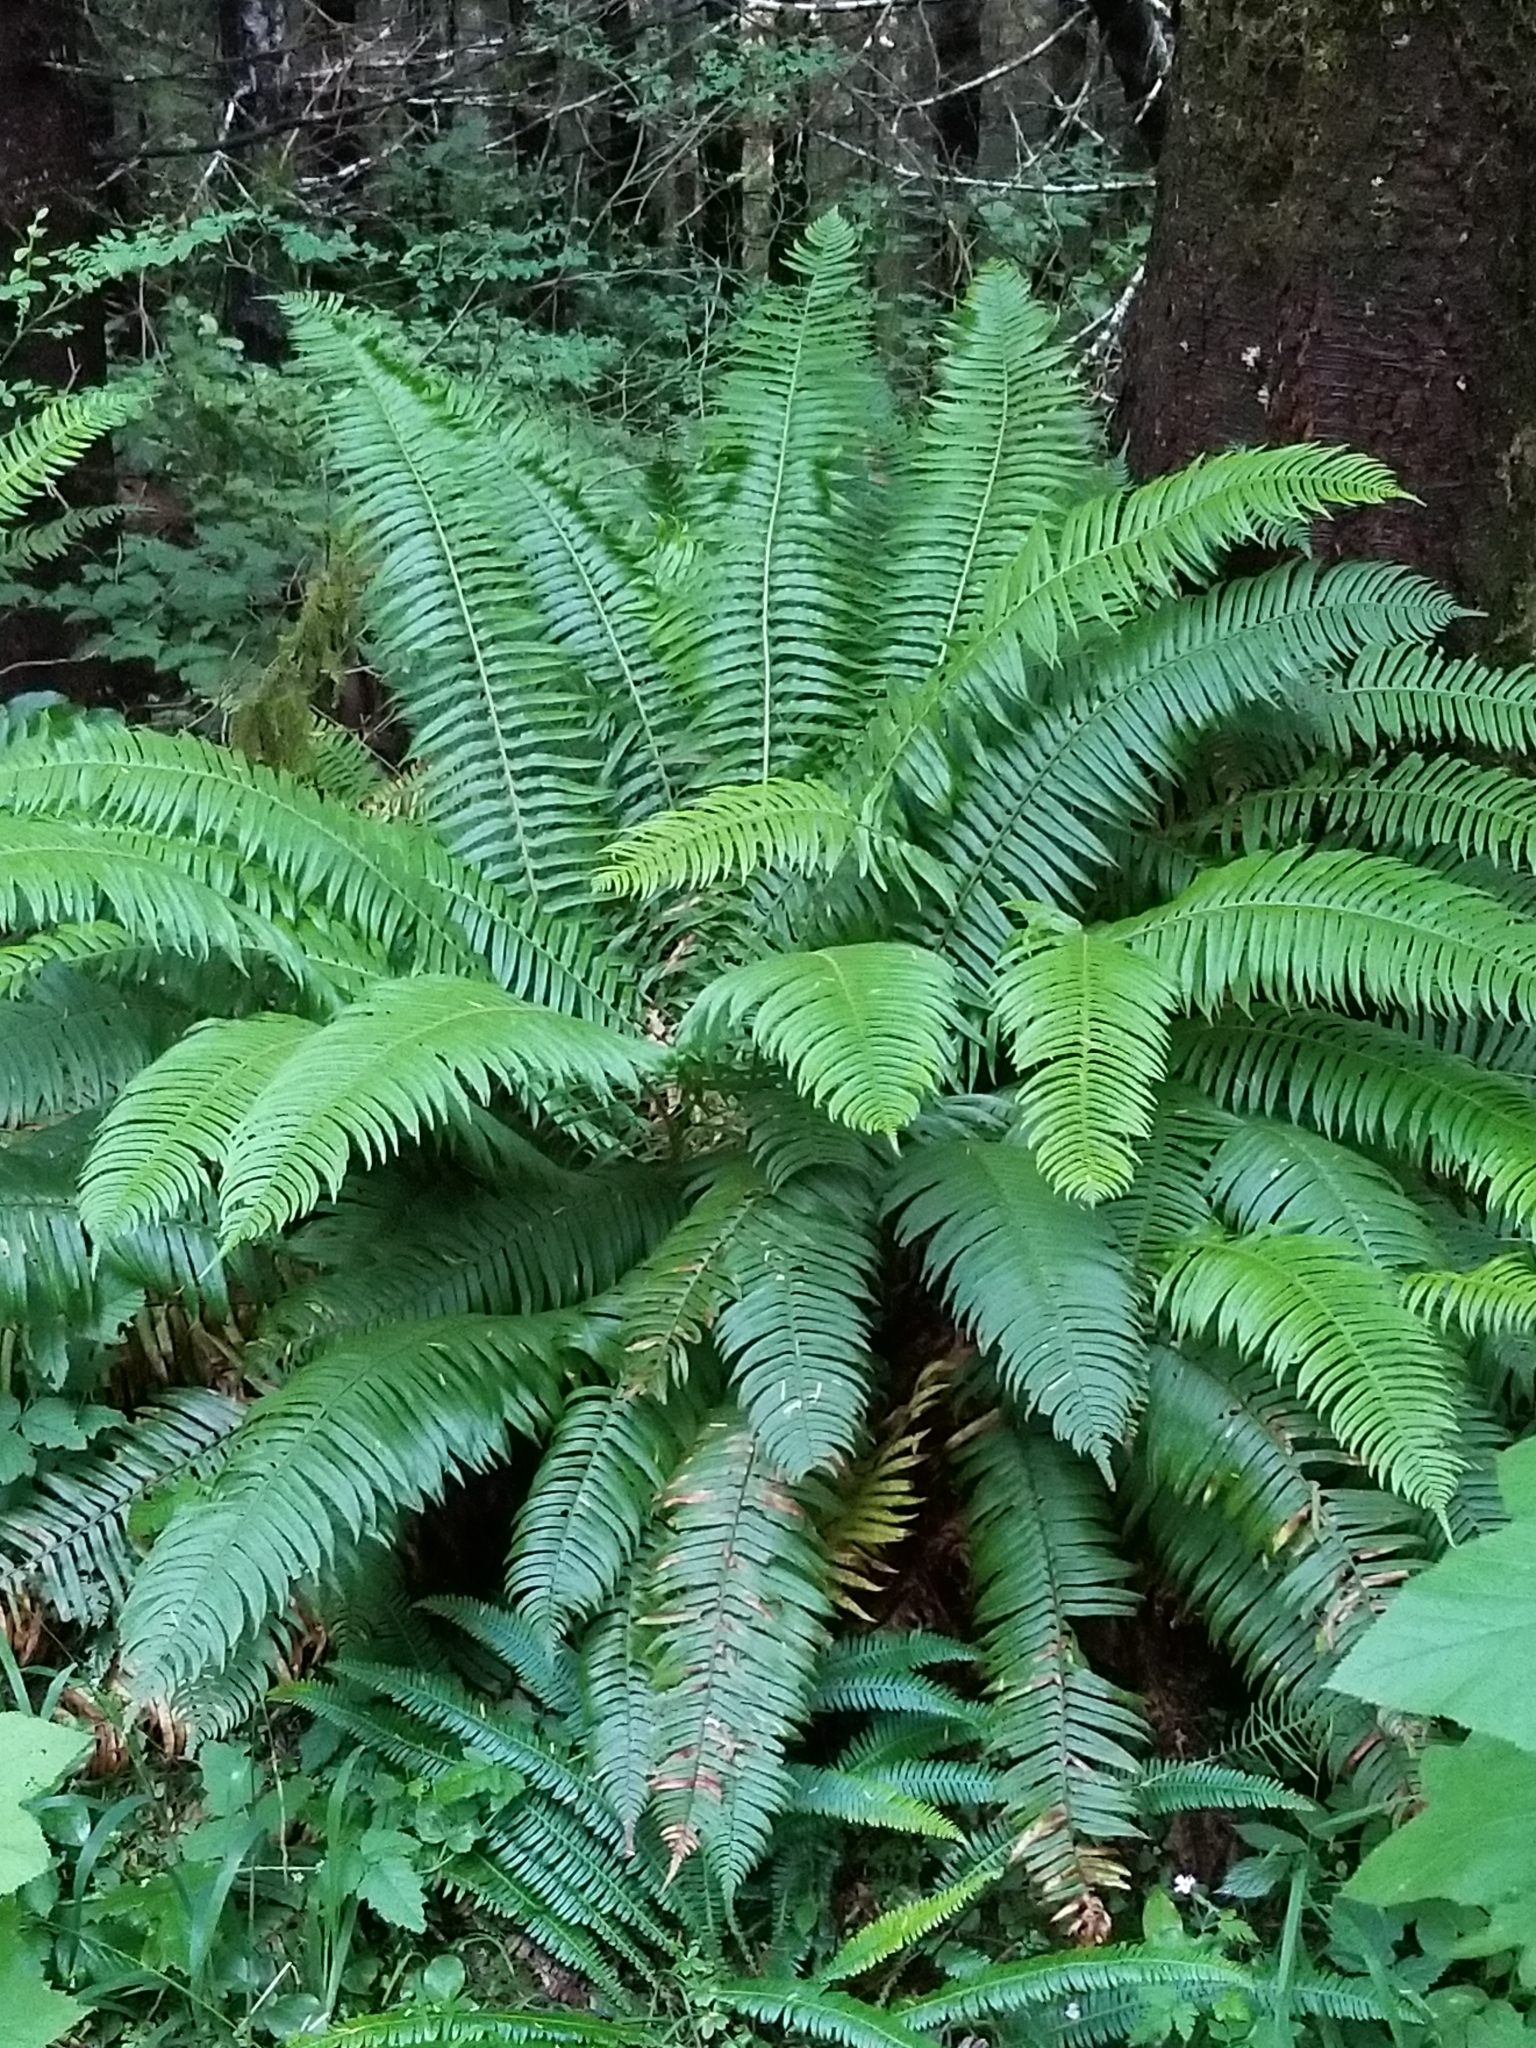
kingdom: Plantae
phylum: Tracheophyta
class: Polypodiopsida
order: Polypodiales
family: Dryopteridaceae
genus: Polystichum
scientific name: Polystichum munitum
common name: Western sword-fern
